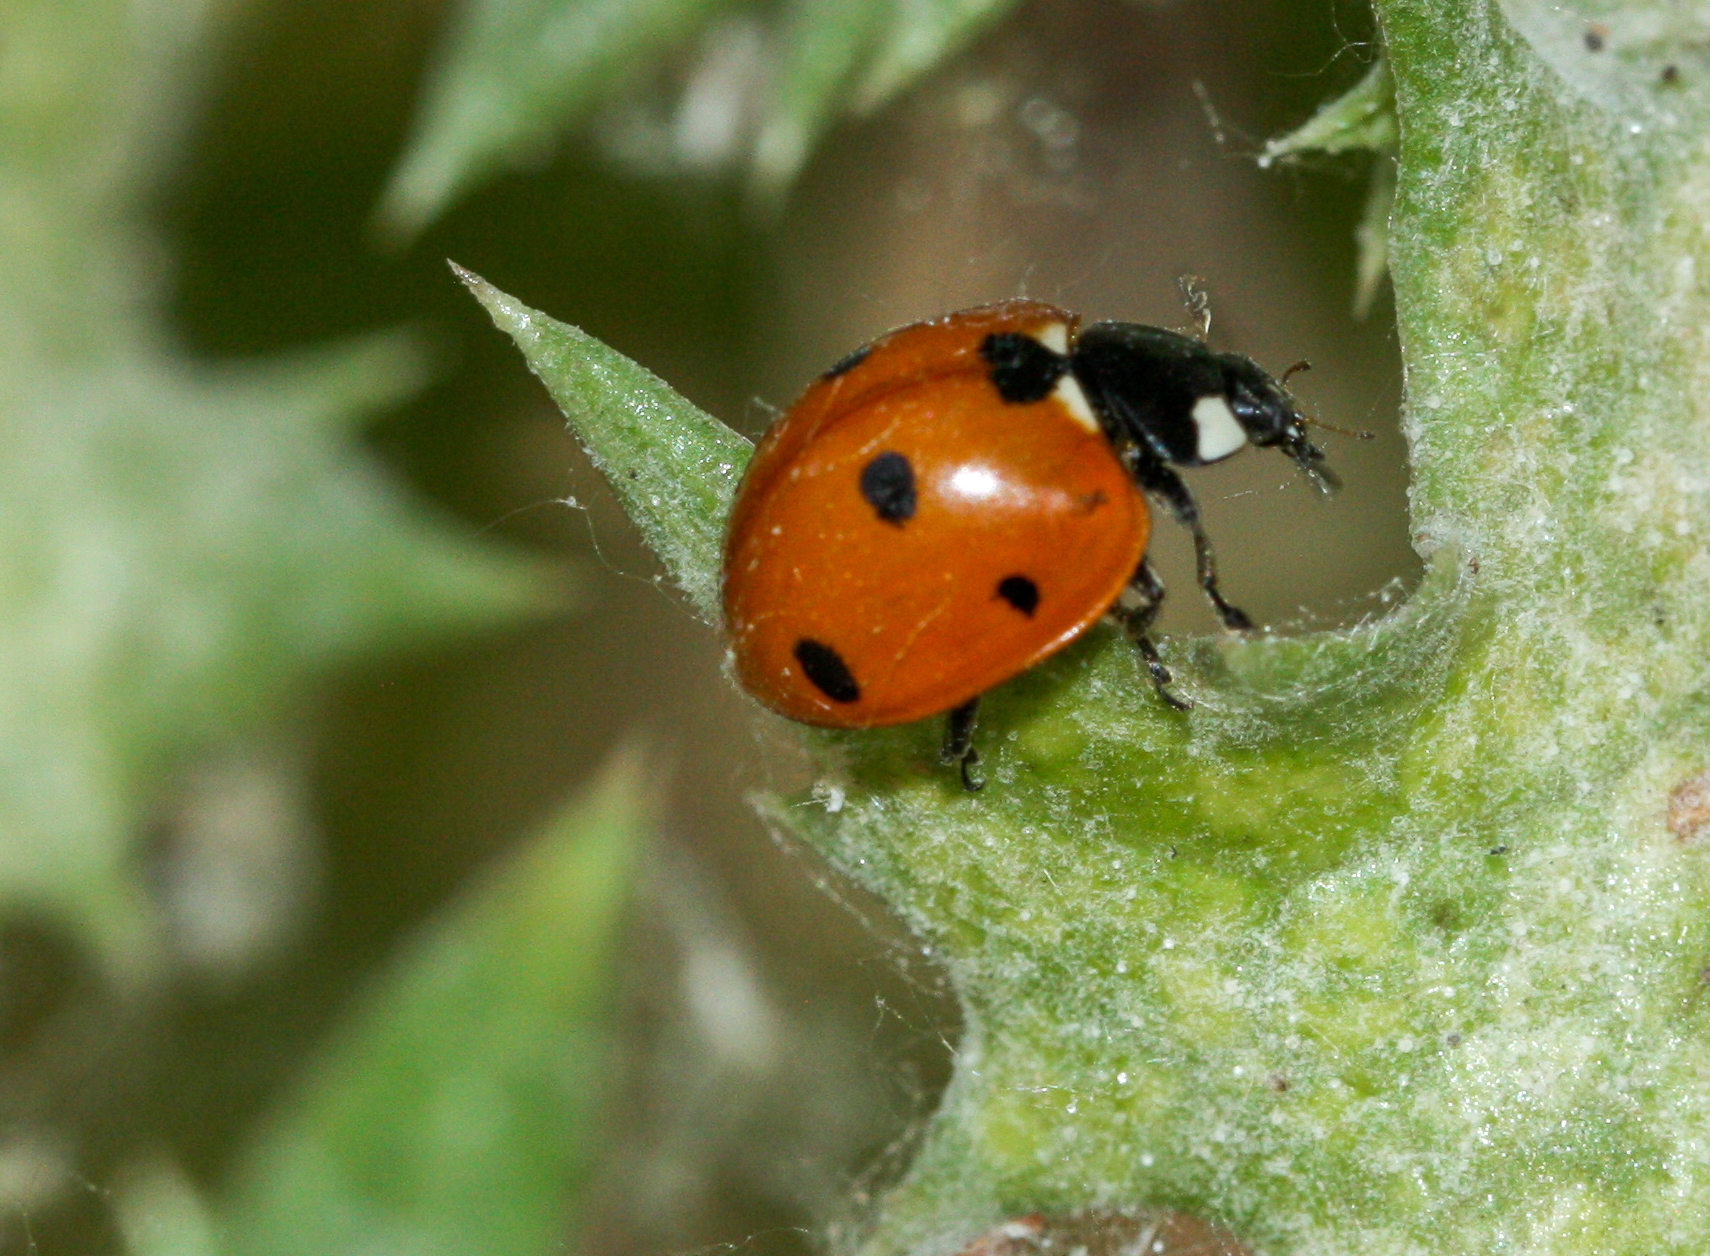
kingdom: Animalia
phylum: Arthropoda
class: Insecta
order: Coleoptera
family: Coccinellidae
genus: Coccinella
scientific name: Coccinella septempunctata
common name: Sevenspotted lady beetle
